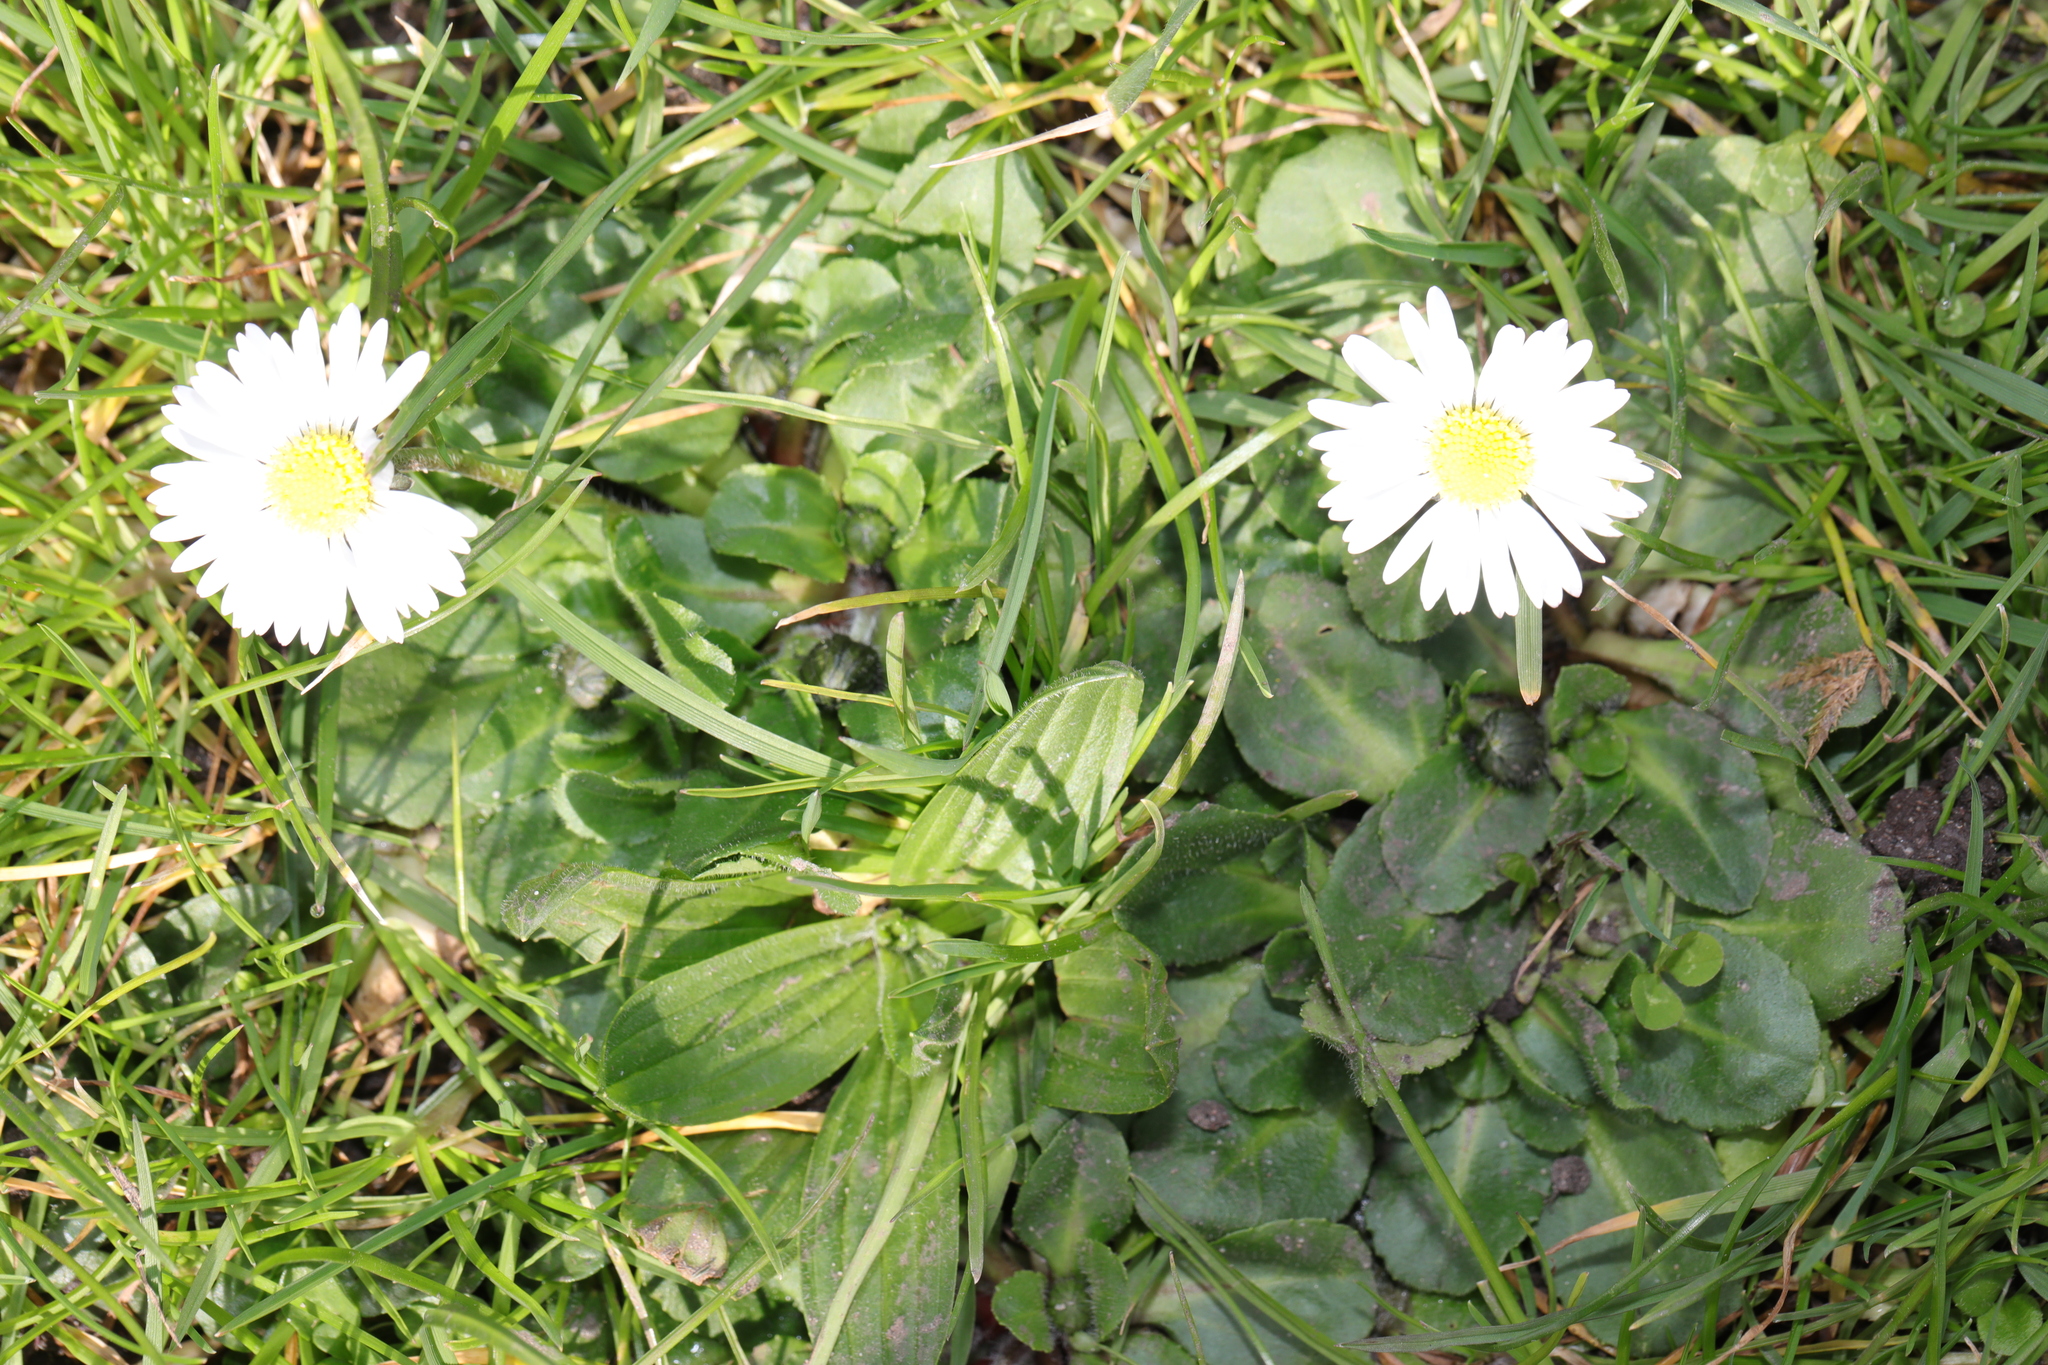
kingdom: Plantae
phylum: Tracheophyta
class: Magnoliopsida
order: Asterales
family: Asteraceae
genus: Bellis
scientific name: Bellis perennis
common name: Lawndaisy
